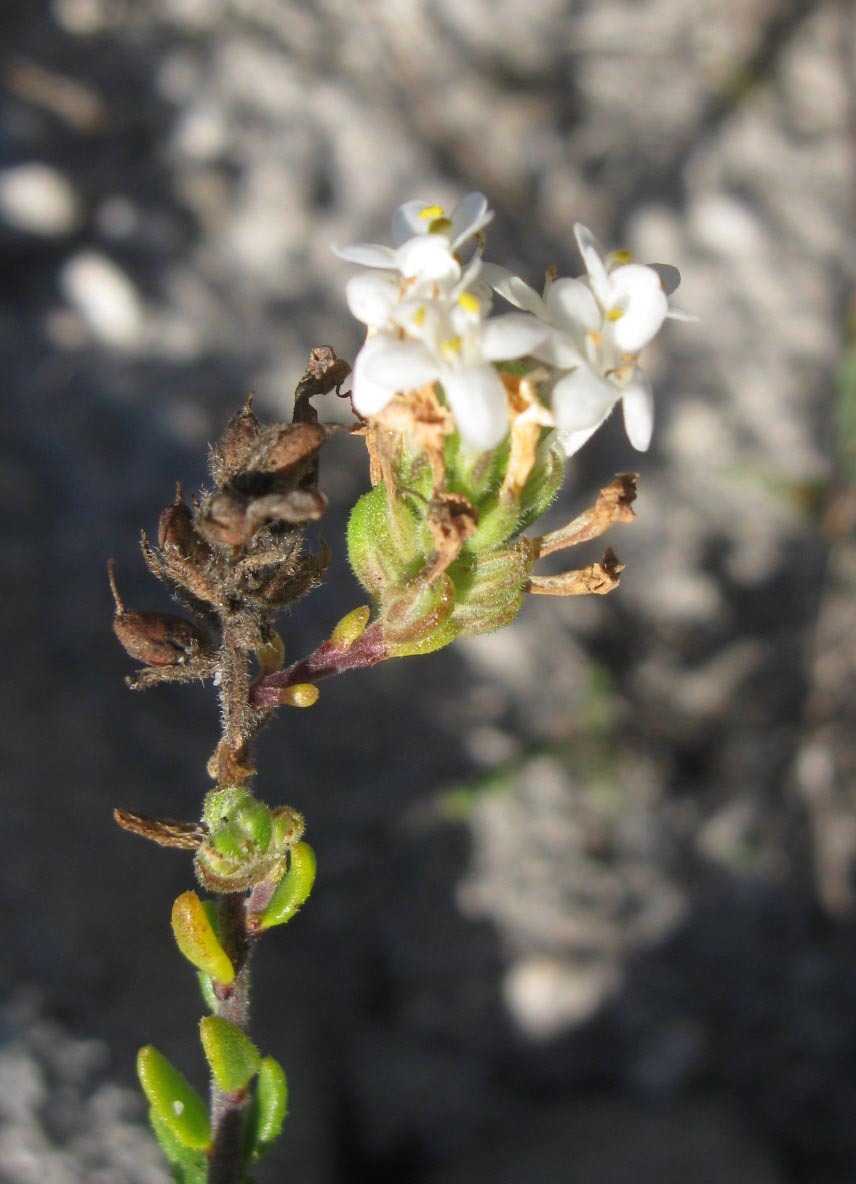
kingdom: Plantae
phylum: Tracheophyta
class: Magnoliopsida
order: Lamiales
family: Scrophulariaceae
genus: Selago
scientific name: Selago levynsiae
